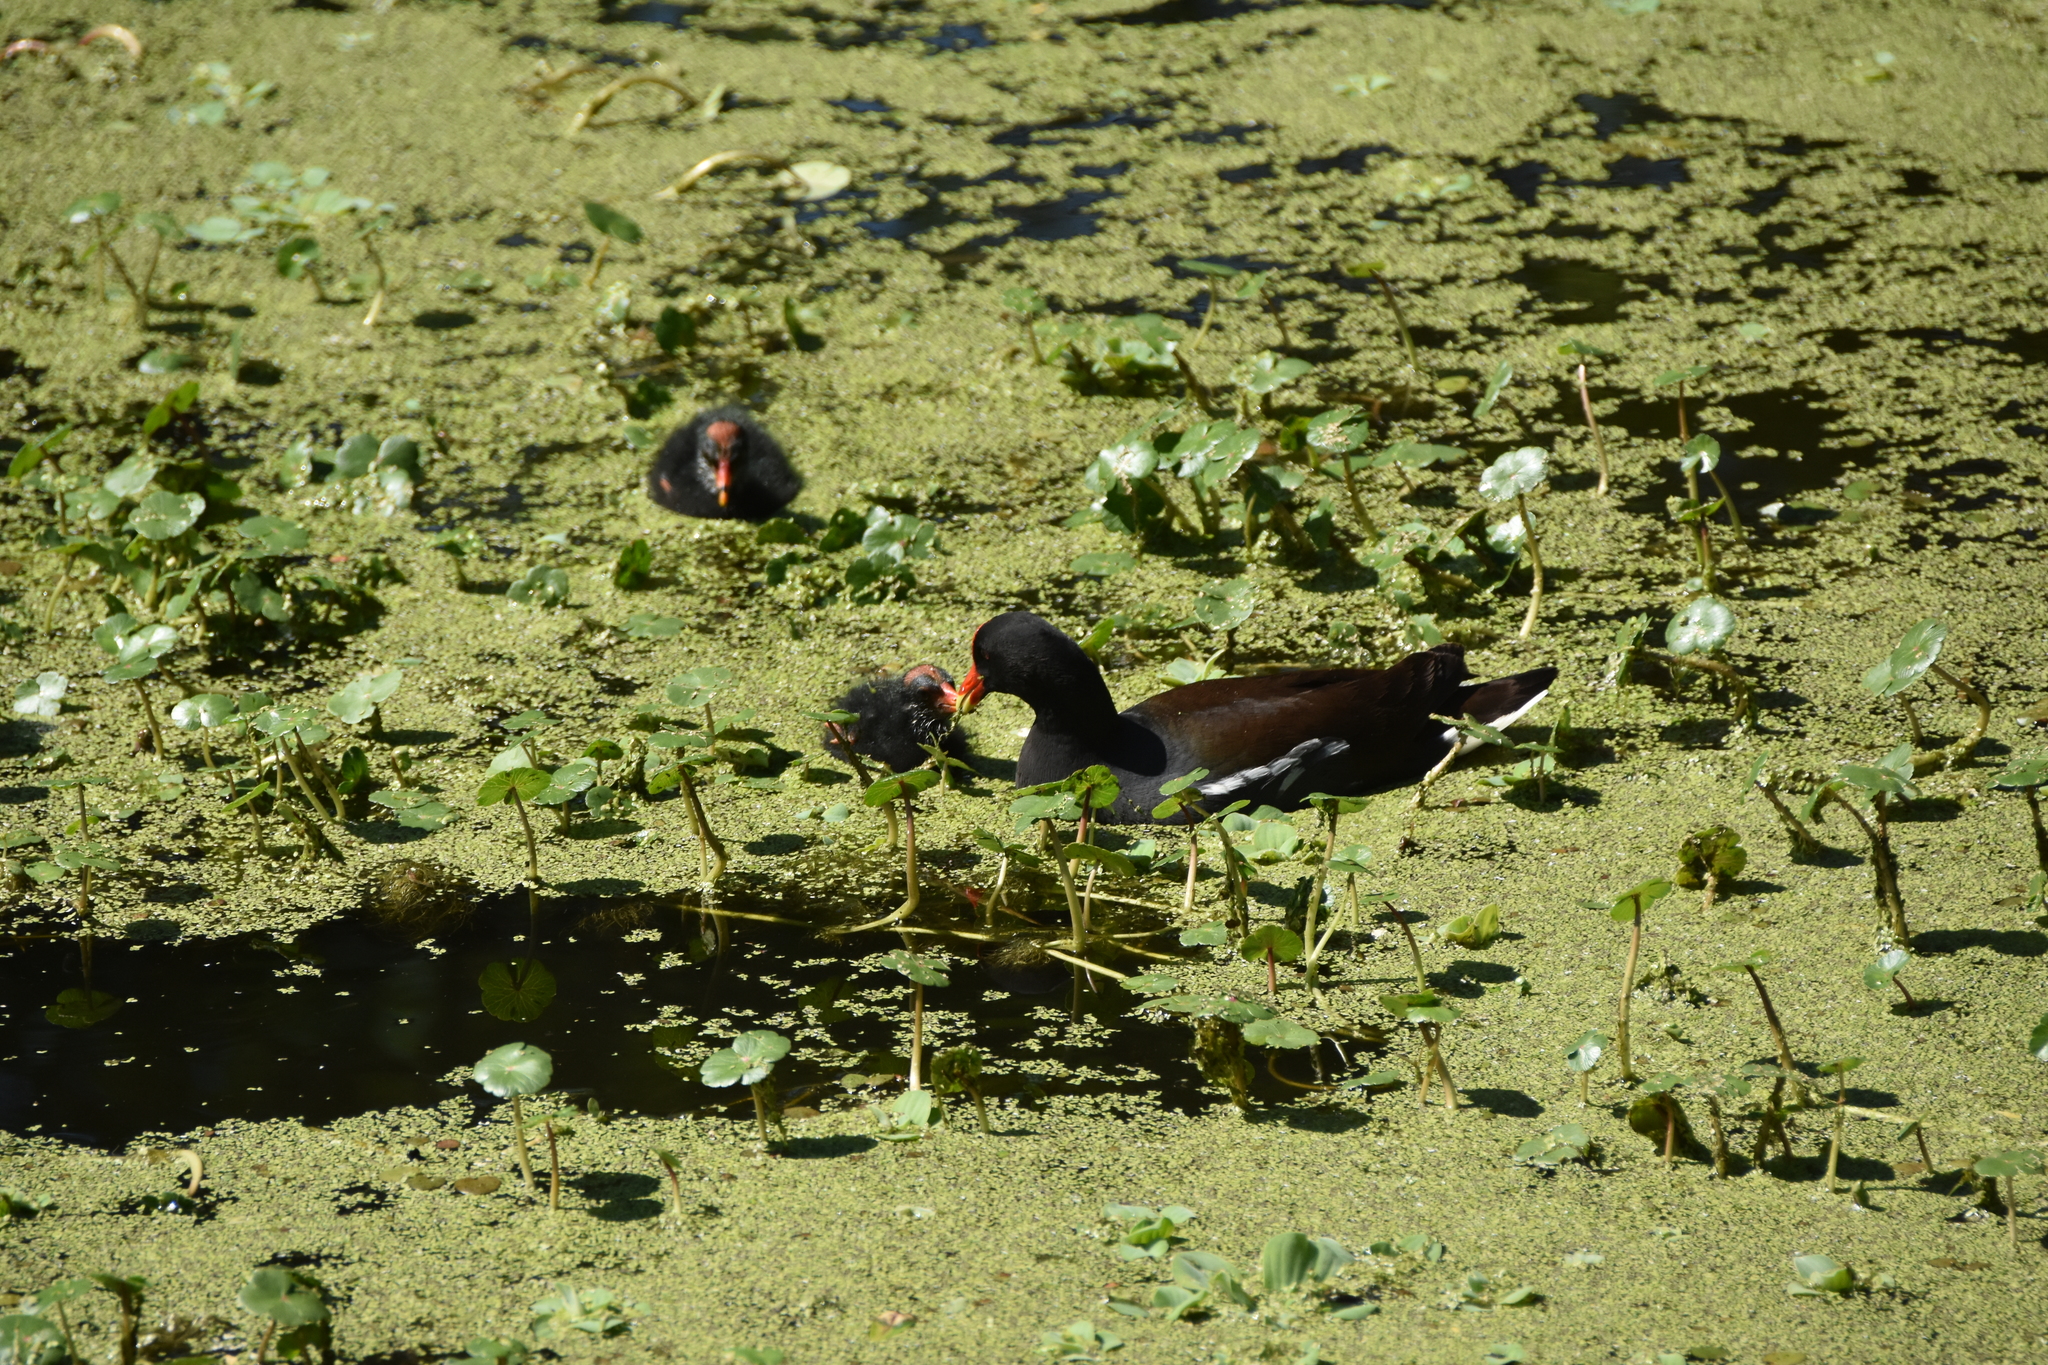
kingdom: Animalia
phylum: Chordata
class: Aves
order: Gruiformes
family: Rallidae
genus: Gallinula
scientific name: Gallinula chloropus
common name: Common moorhen
